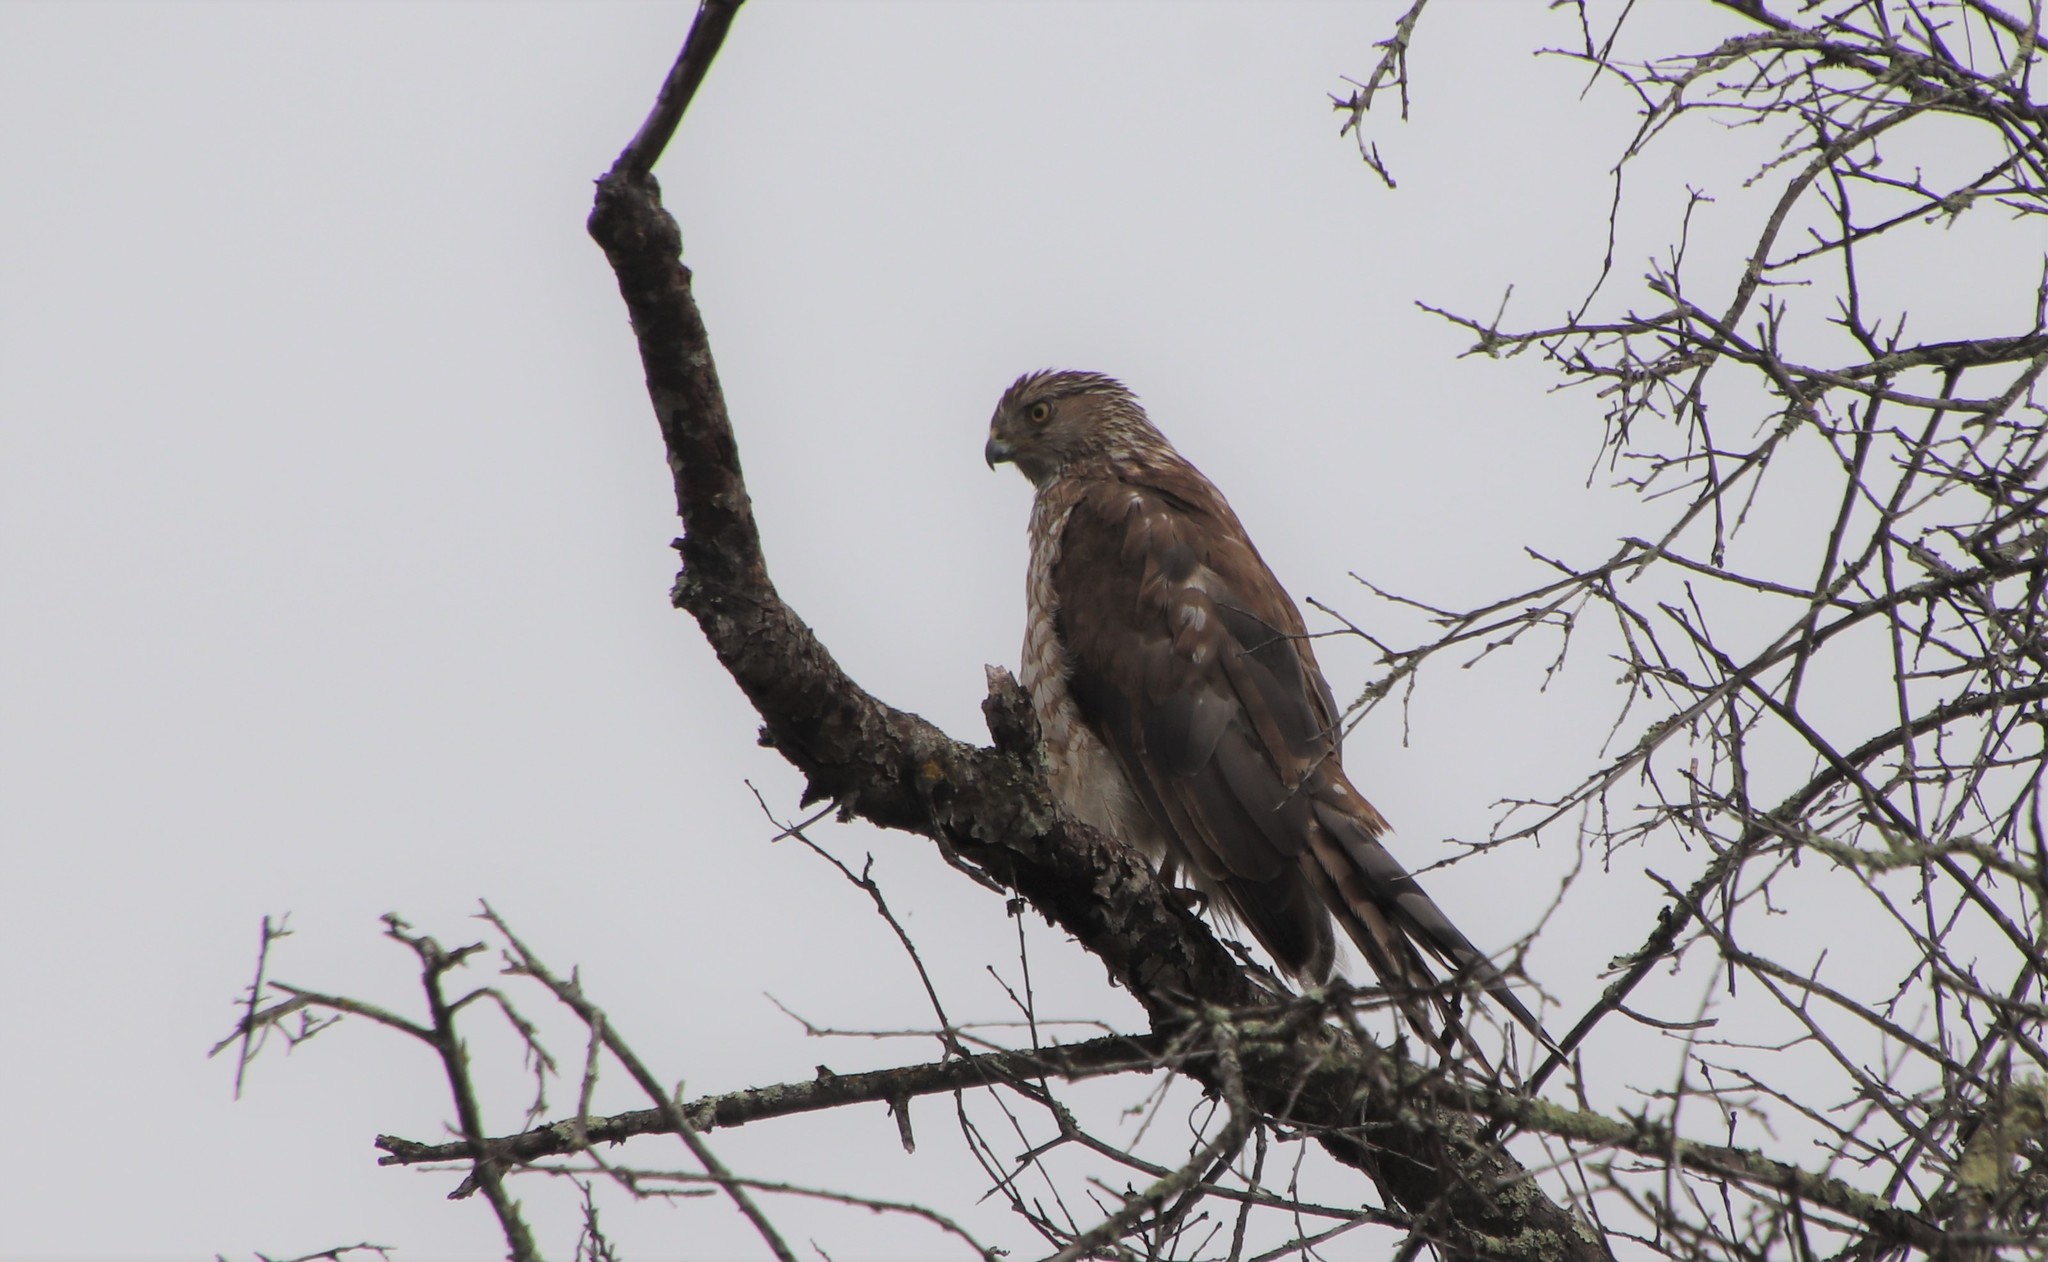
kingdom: Animalia
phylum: Chordata
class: Aves
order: Accipitriformes
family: Accipitridae
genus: Accipiter
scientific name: Accipiter cooperii
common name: Cooper's hawk
